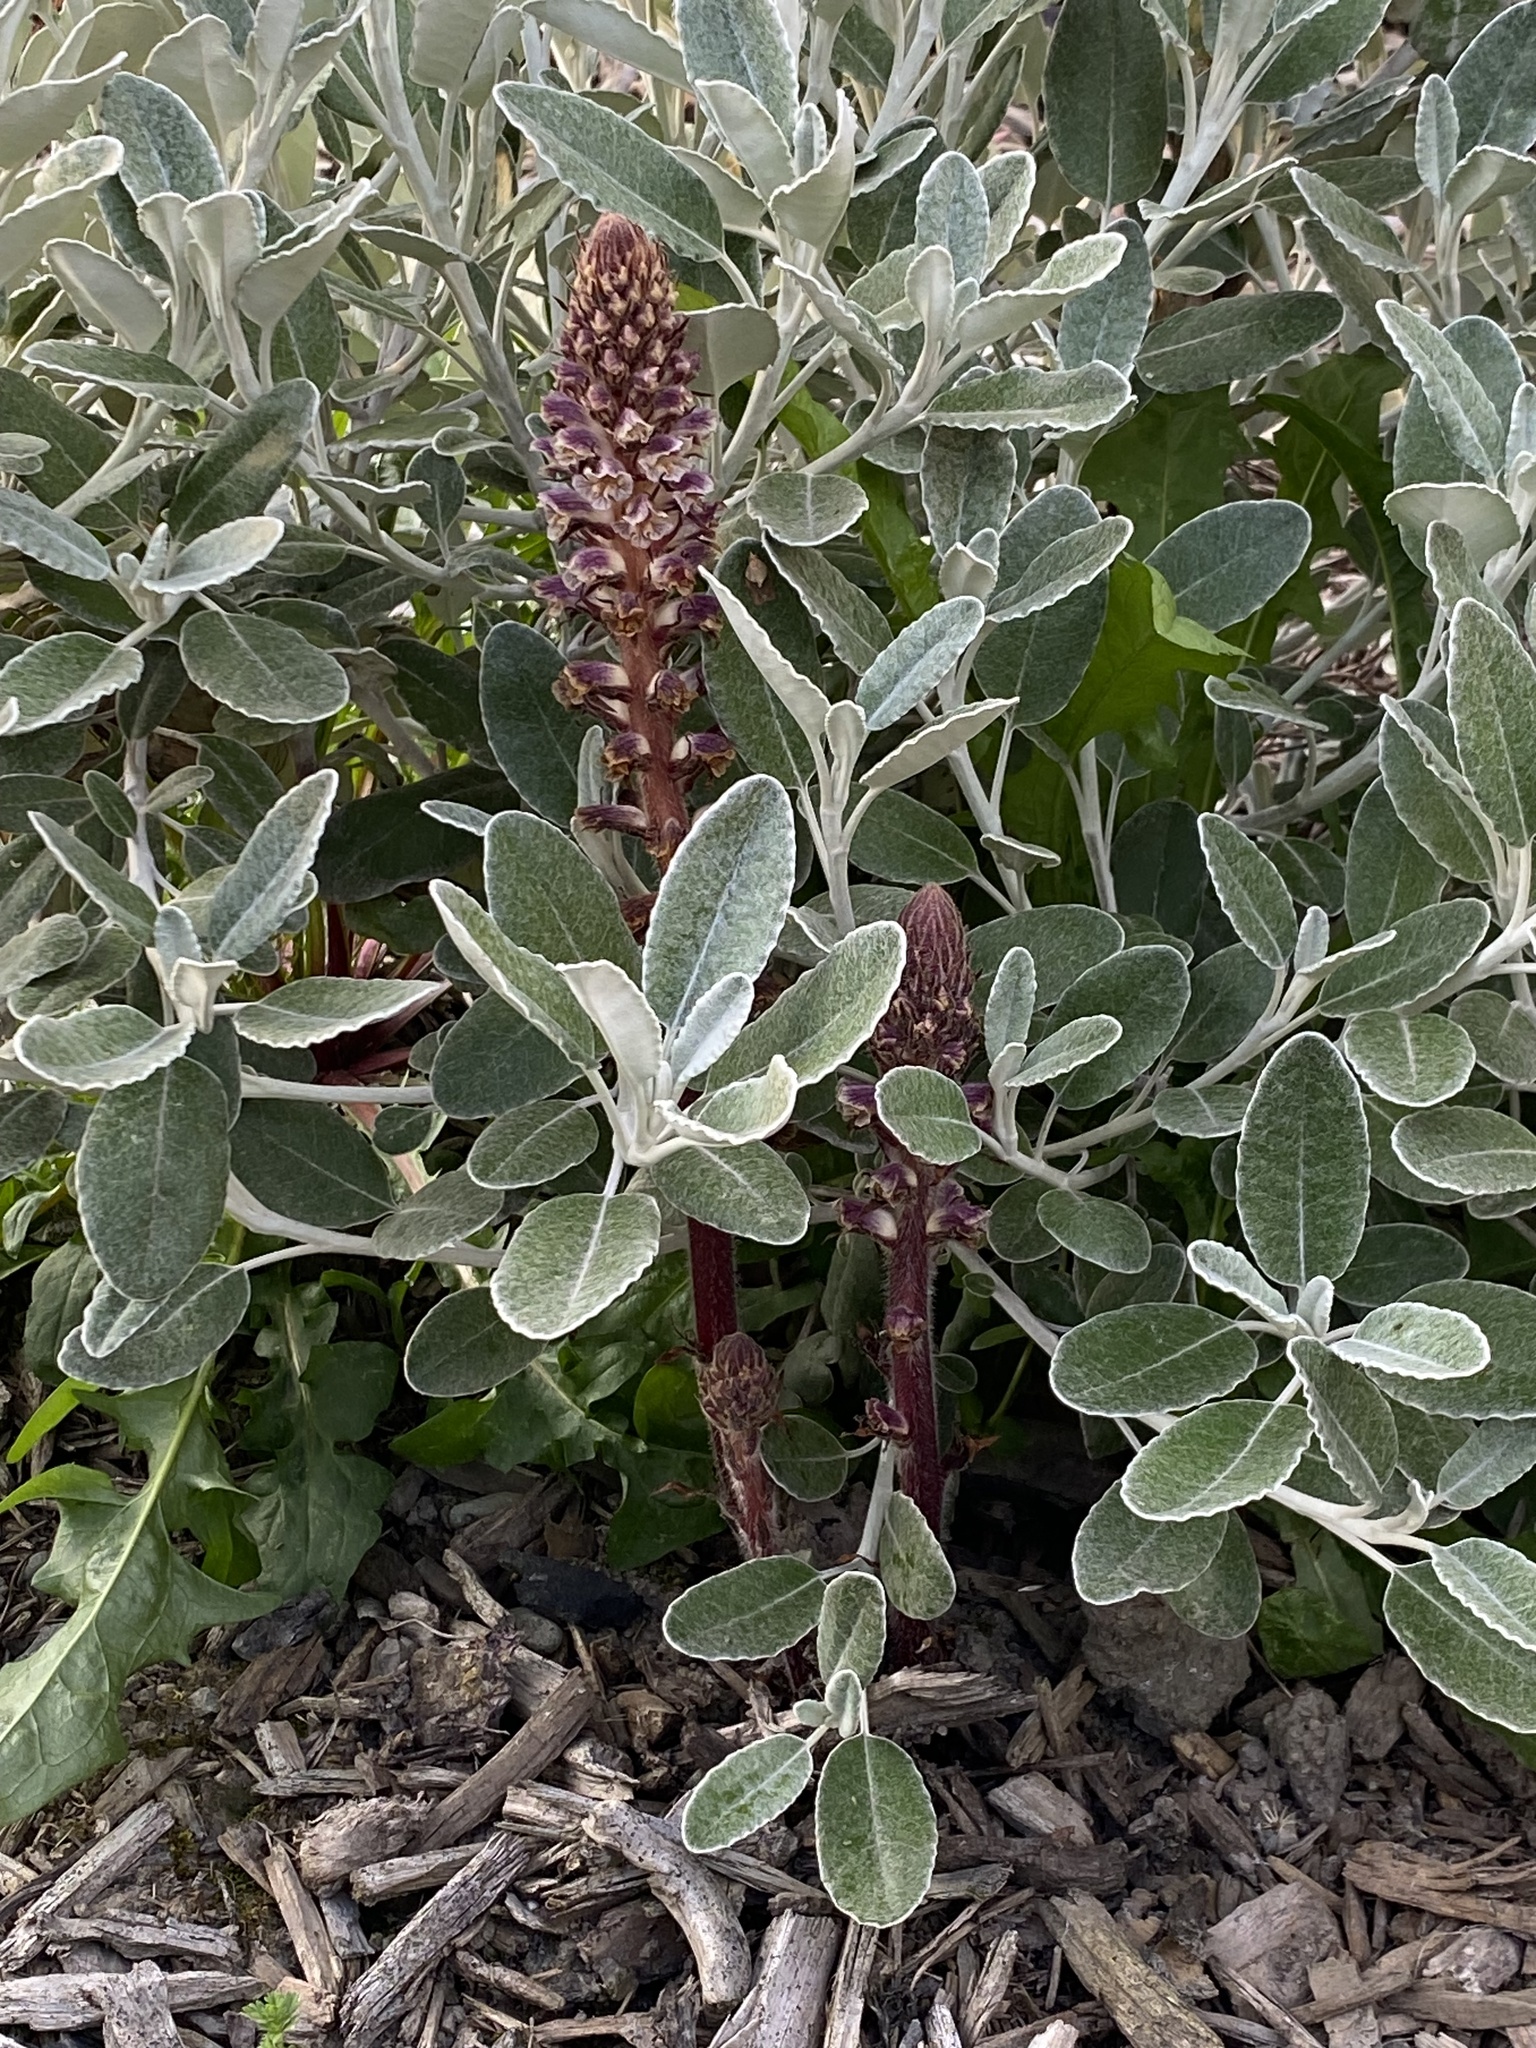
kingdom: Plantae
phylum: Tracheophyta
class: Magnoliopsida
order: Lamiales
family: Orobanchaceae
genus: Orobanche
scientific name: Orobanche minor
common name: Common broomrape
